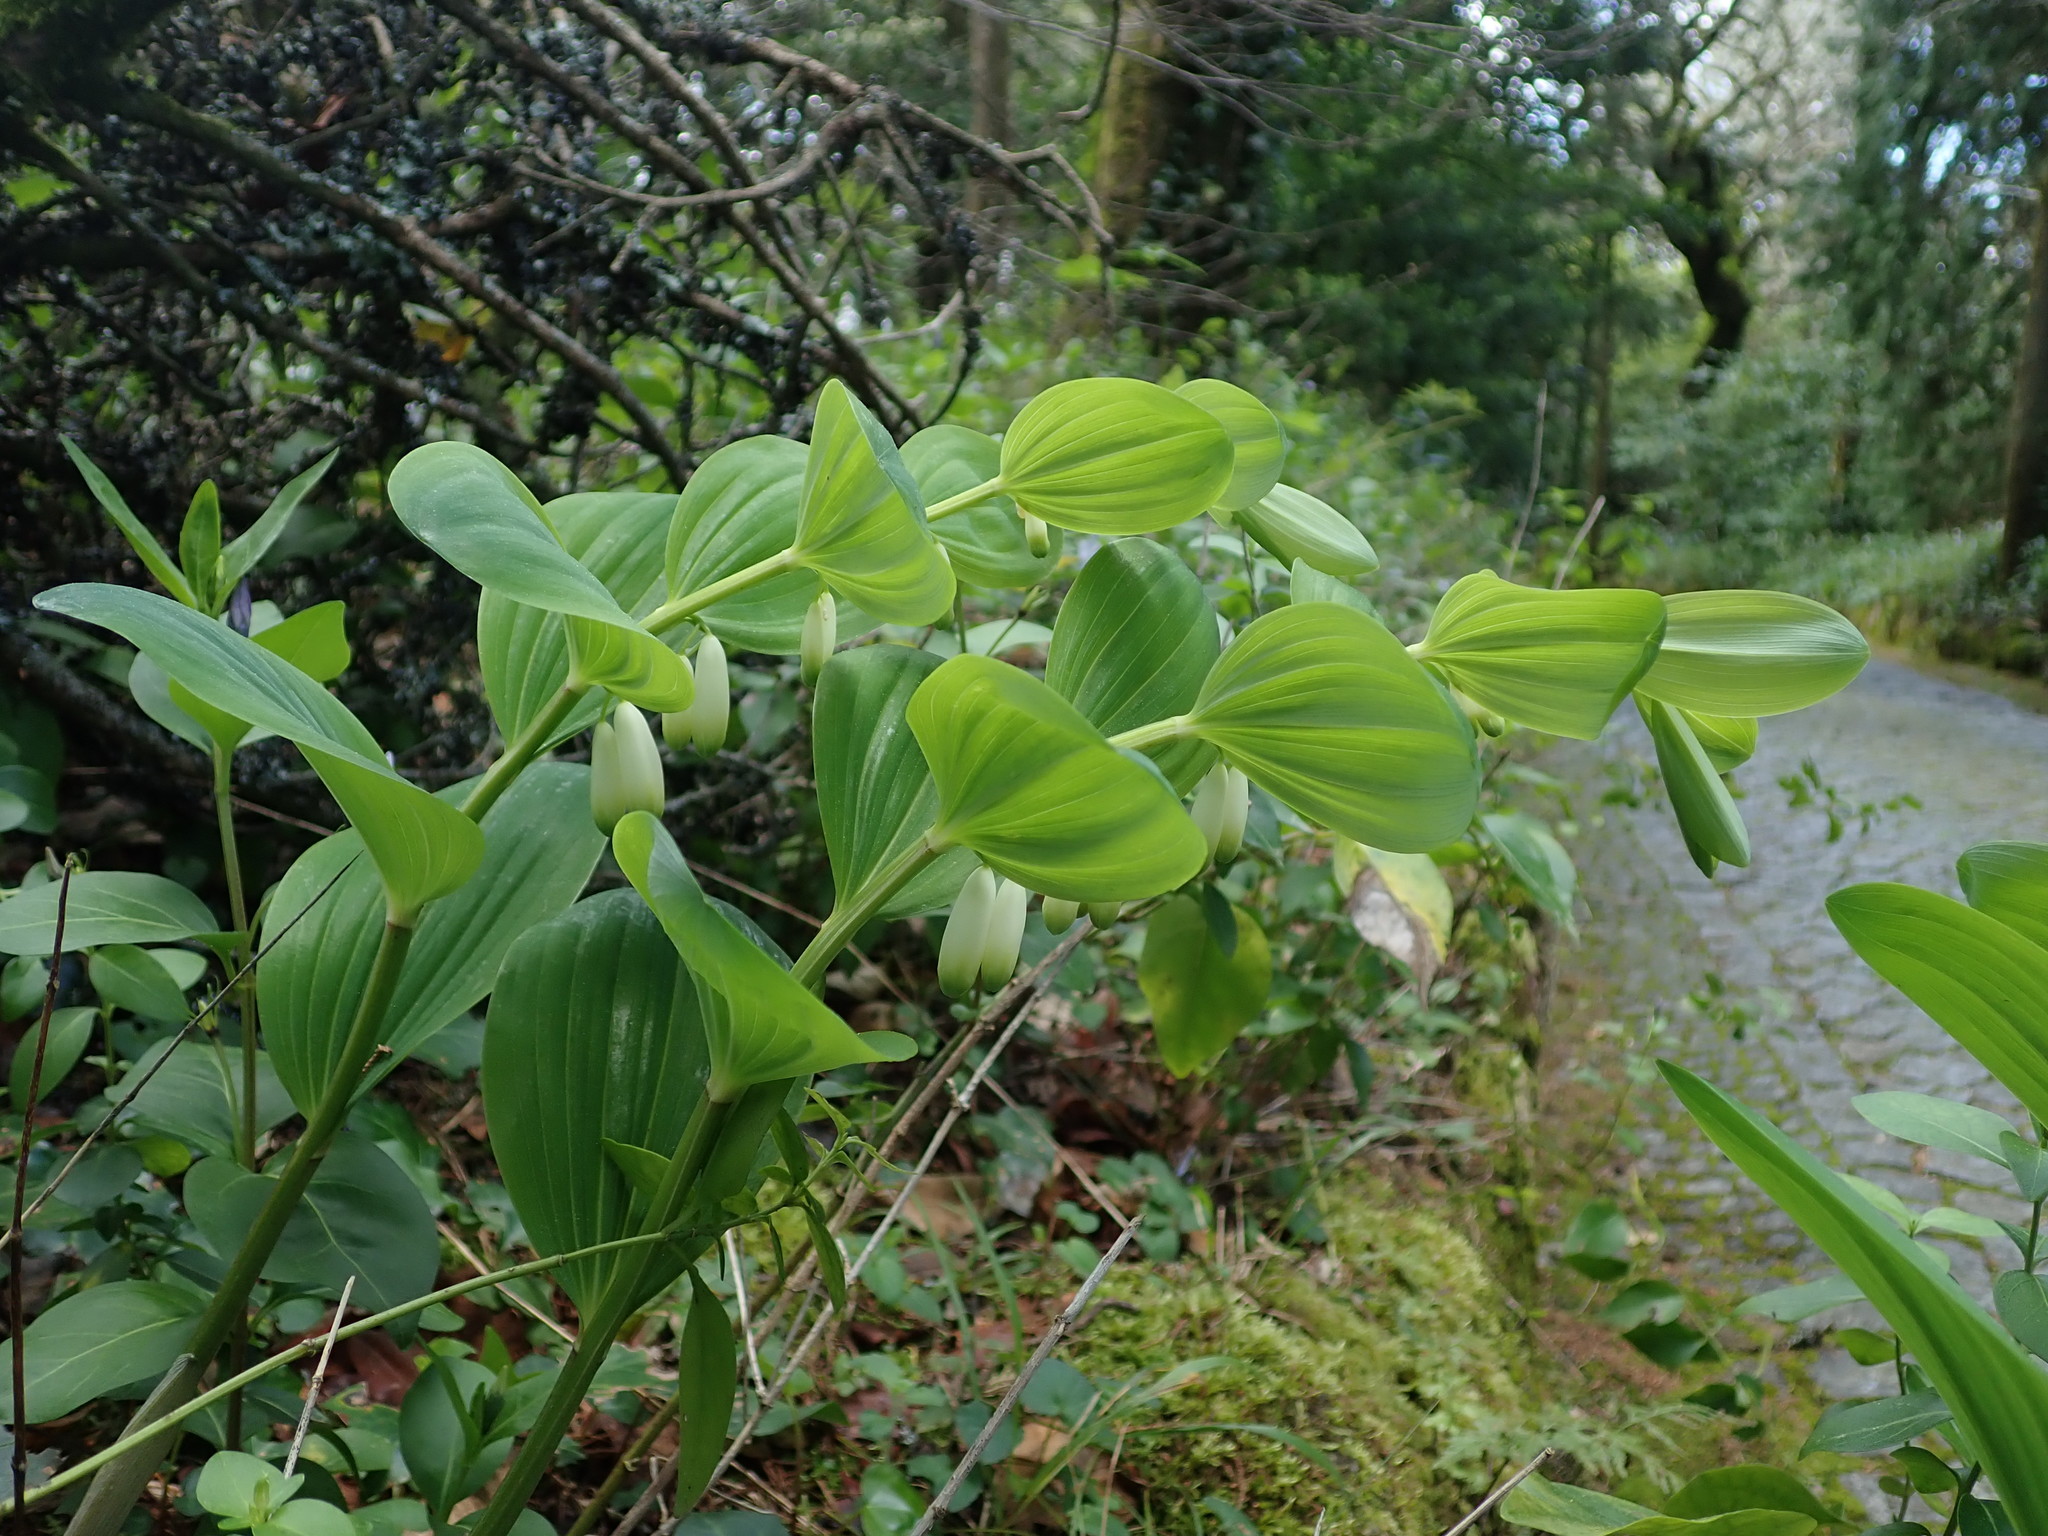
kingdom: Plantae
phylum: Tracheophyta
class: Liliopsida
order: Asparagales
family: Asparagaceae
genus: Polygonatum
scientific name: Polygonatum odoratum
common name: Angular solomon's-seal
